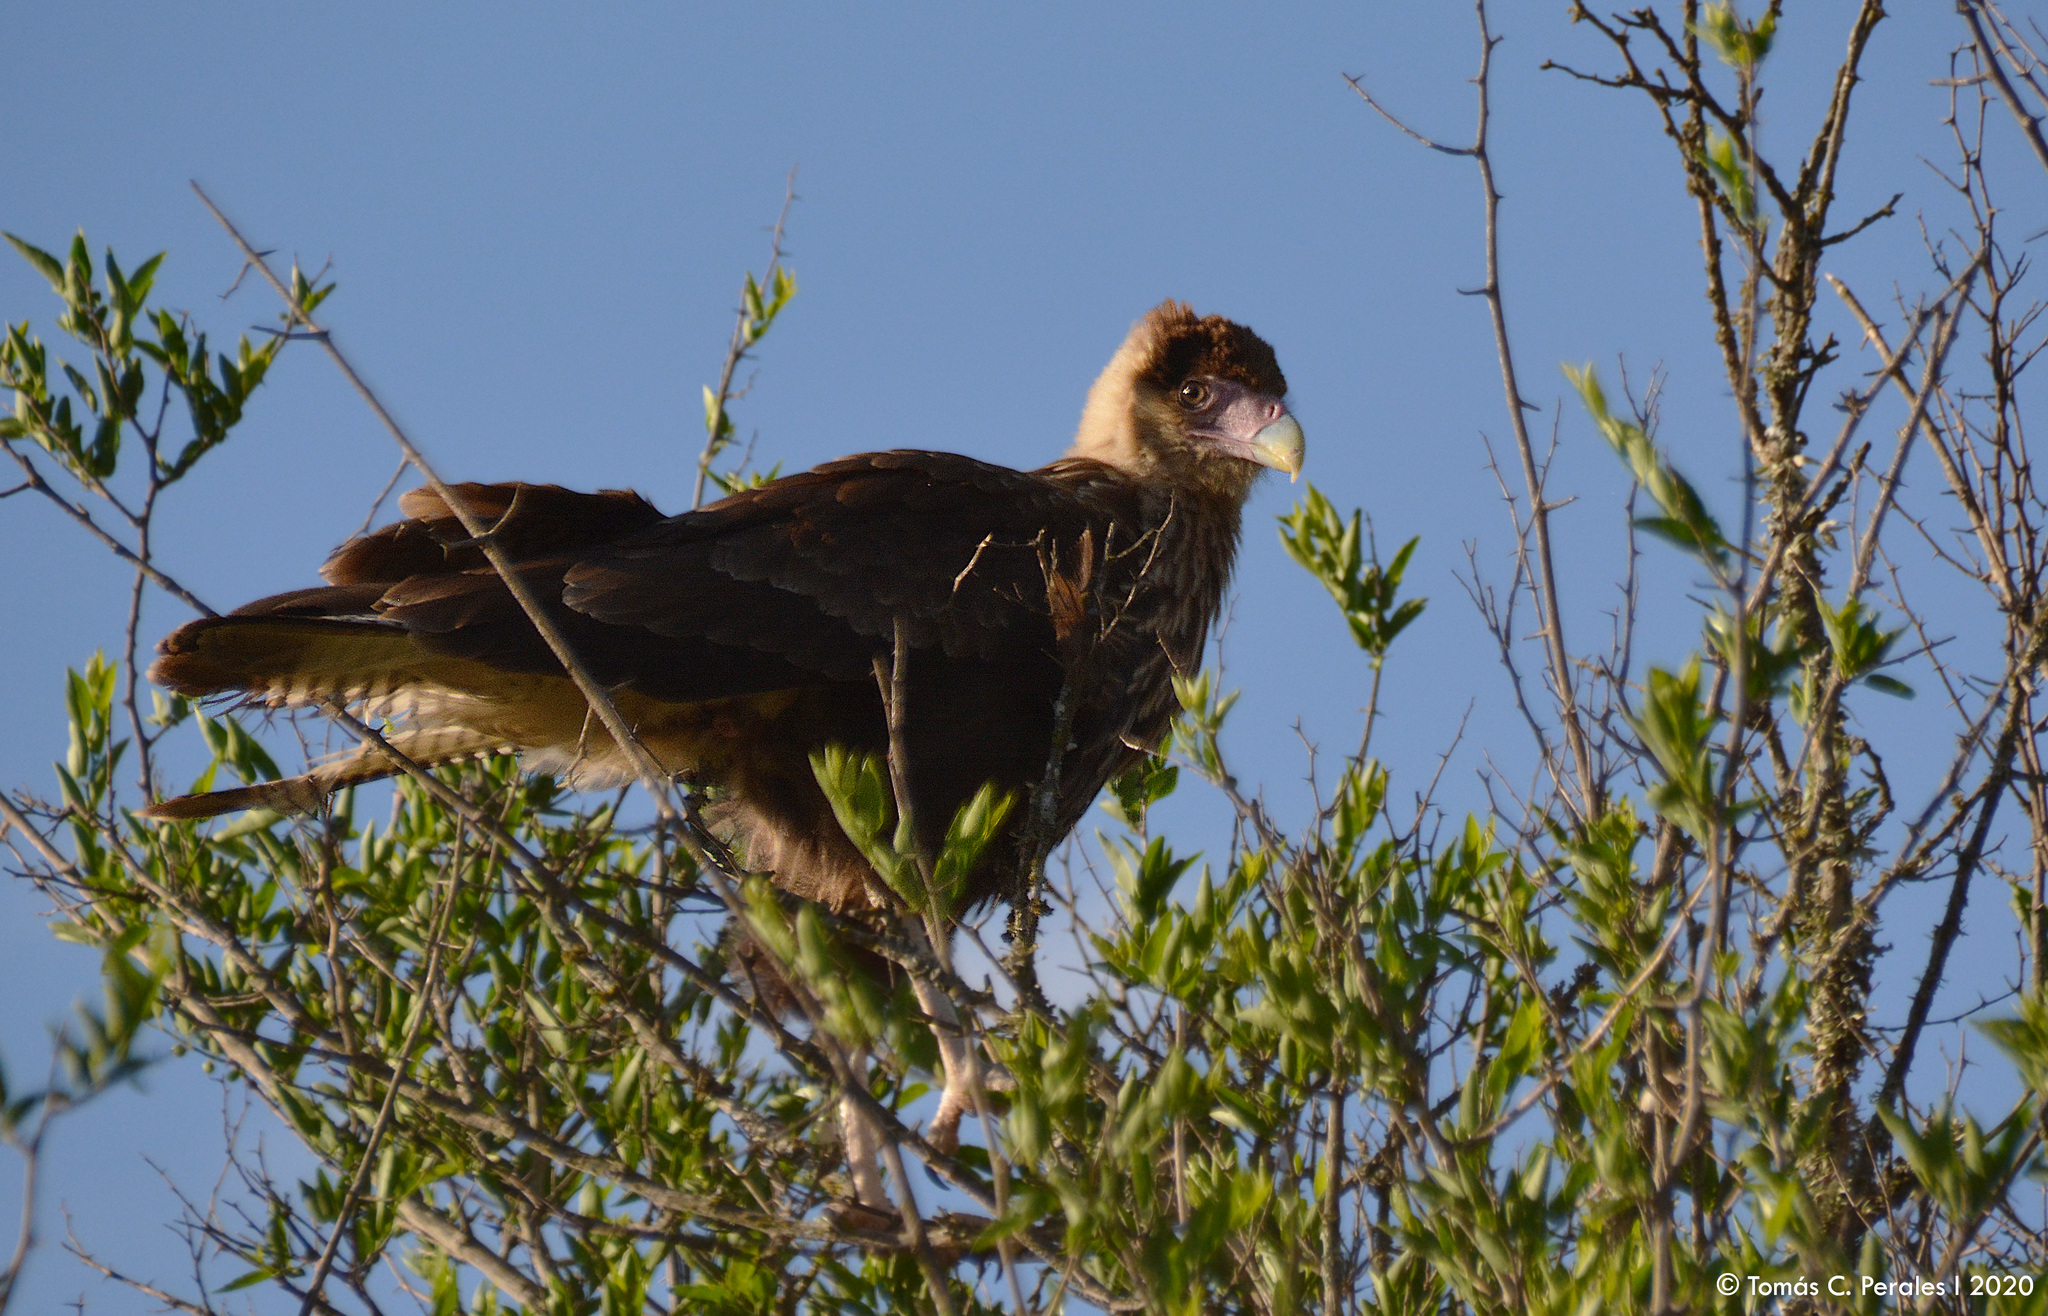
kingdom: Animalia
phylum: Chordata
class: Aves
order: Falconiformes
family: Falconidae
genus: Caracara
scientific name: Caracara plancus
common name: Southern caracara
